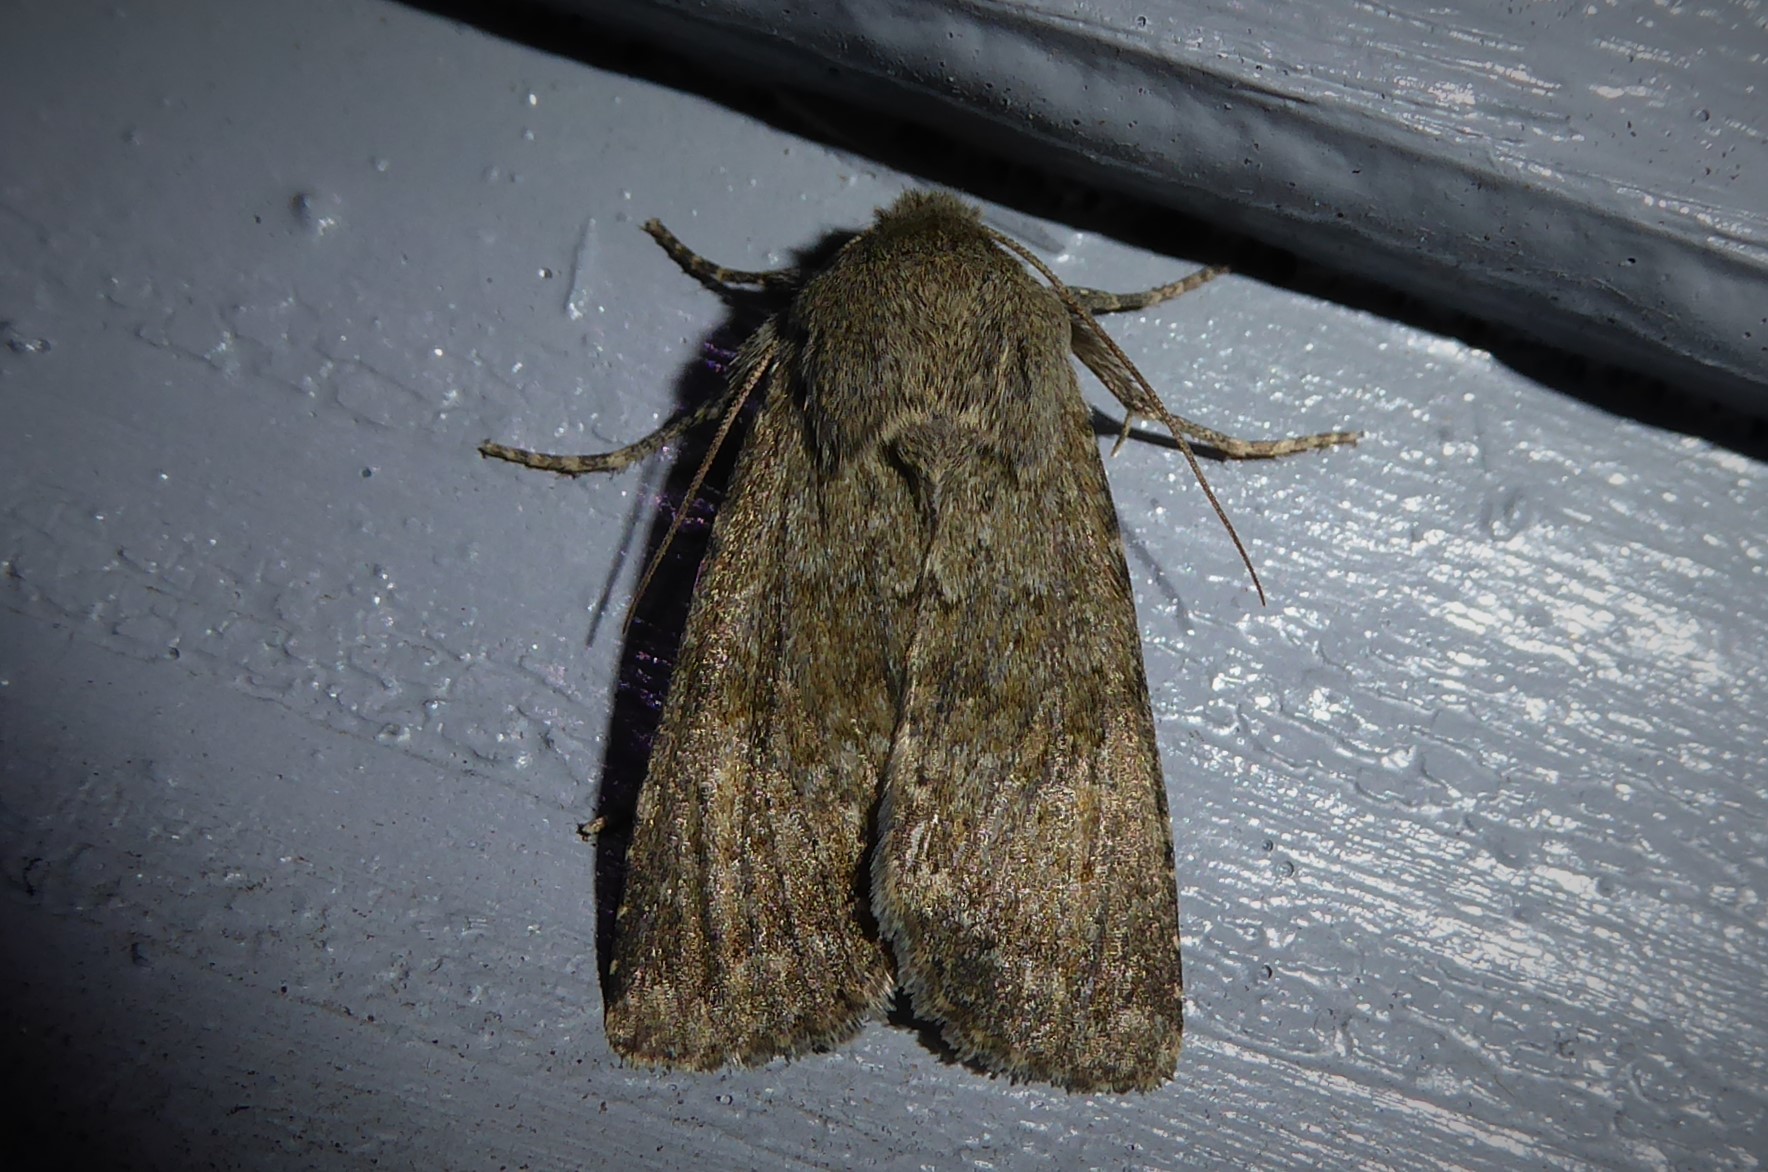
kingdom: Animalia
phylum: Arthropoda
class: Insecta
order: Lepidoptera
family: Noctuidae
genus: Ichneutica
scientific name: Ichneutica moderata
